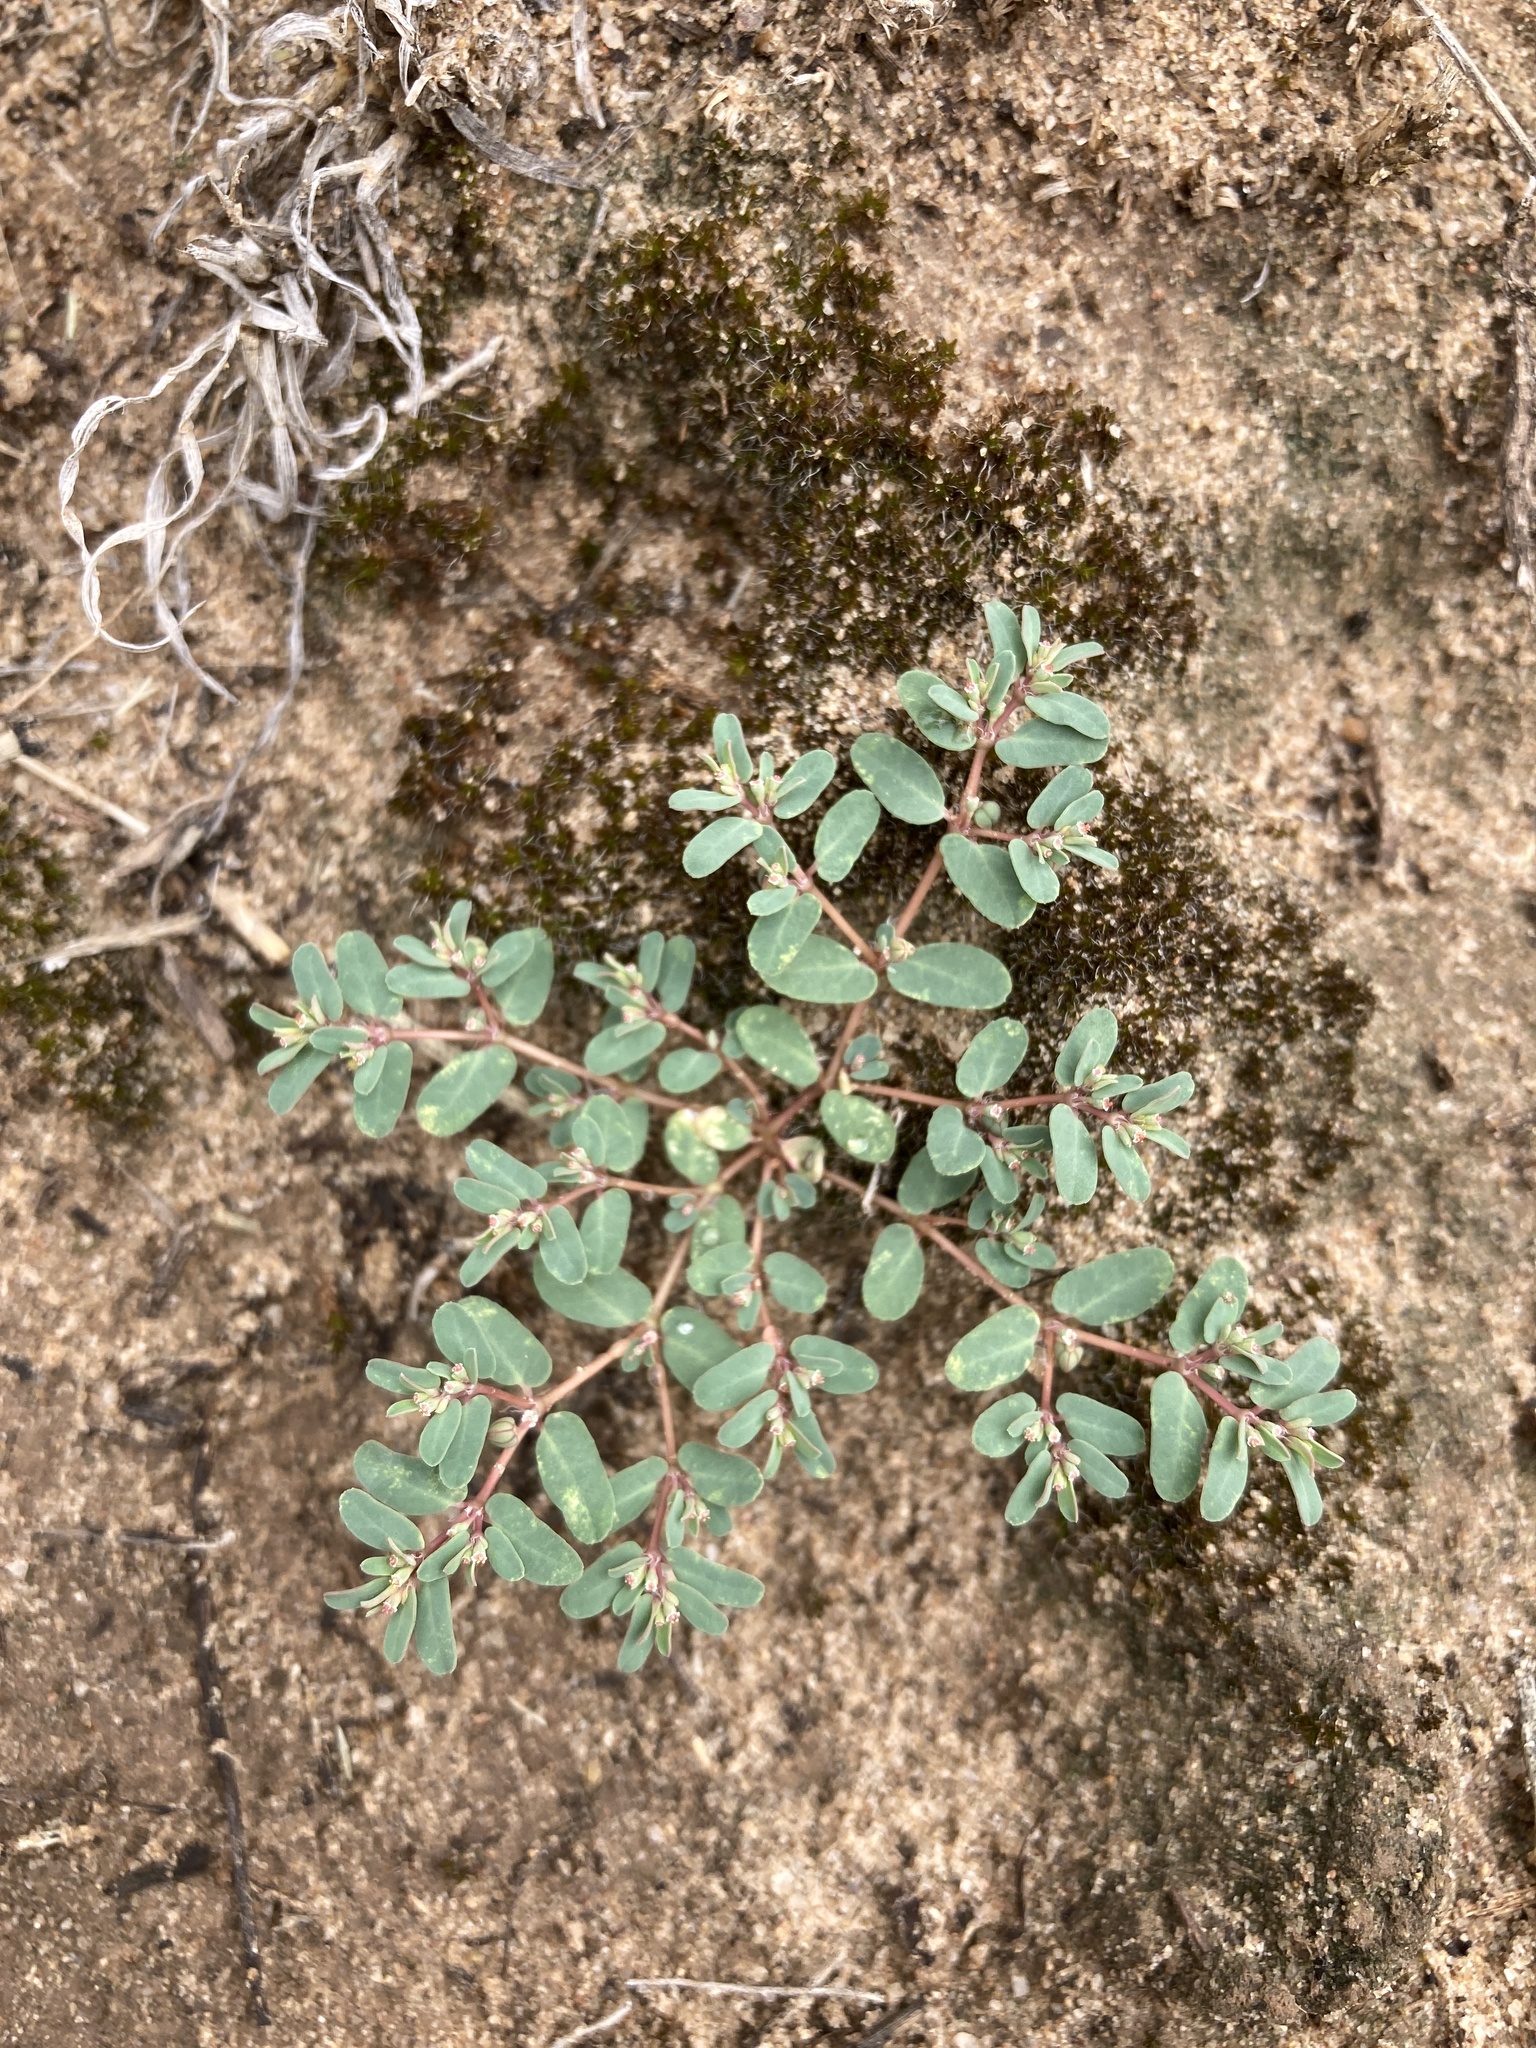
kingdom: Plantae
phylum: Tracheophyta
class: Magnoliopsida
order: Malpighiales
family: Euphorbiaceae
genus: Euphorbia
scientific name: Euphorbia glyptosperma
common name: Corrugate-seeded spurge
